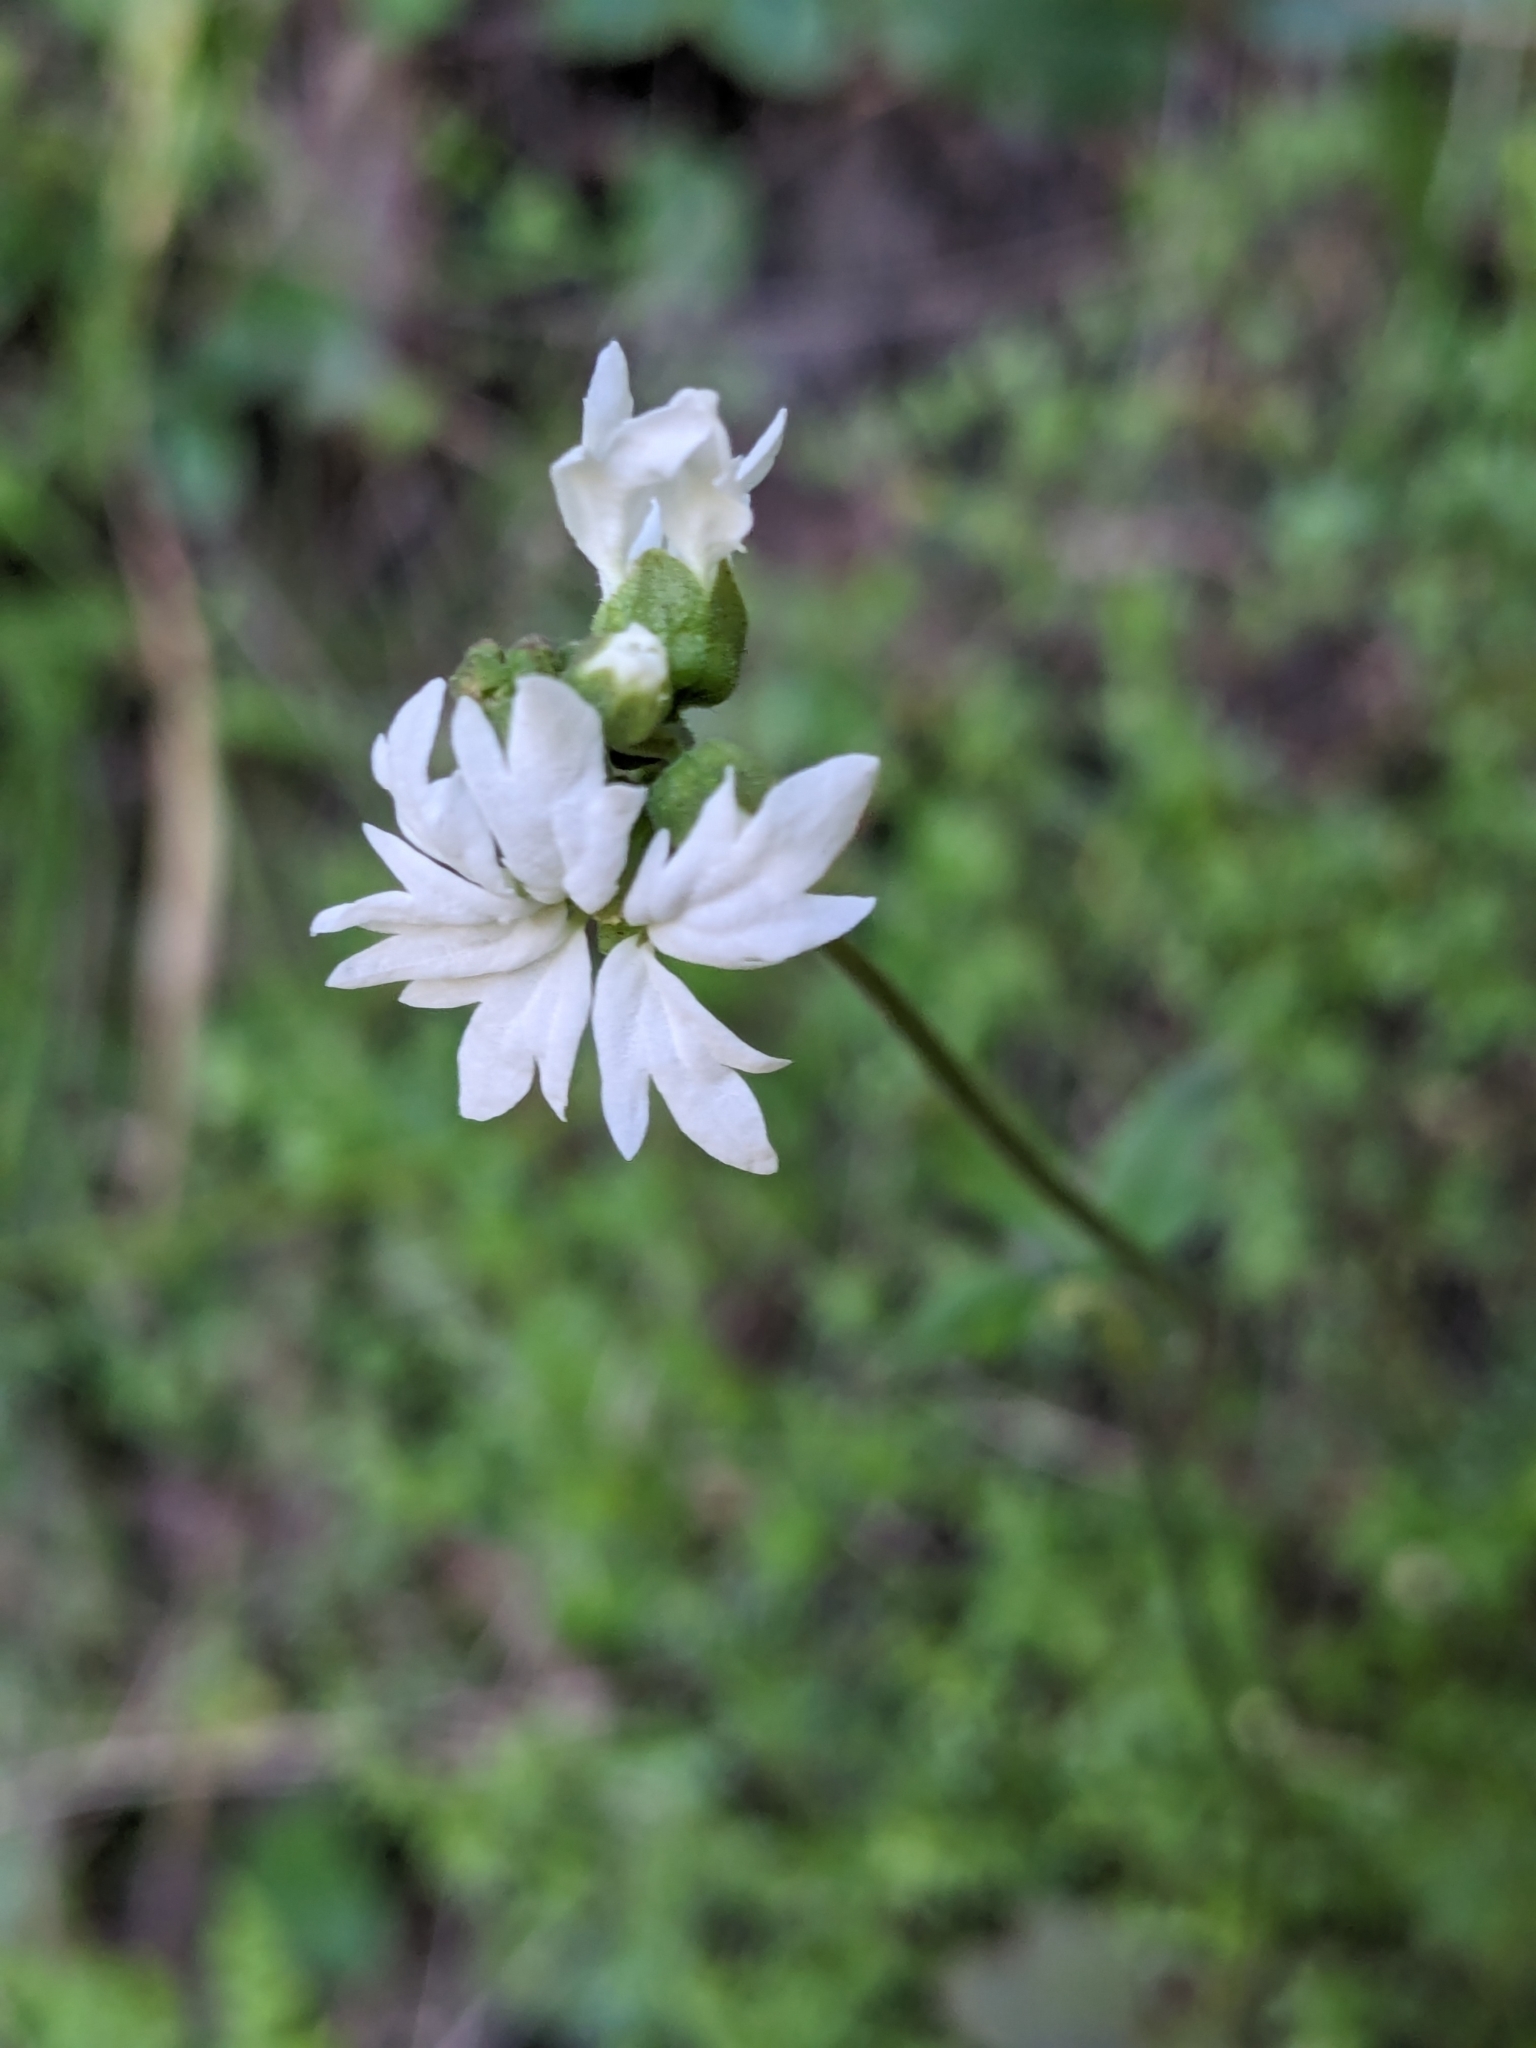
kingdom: Plantae
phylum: Tracheophyta
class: Magnoliopsida
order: Saxifragales
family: Saxifragaceae
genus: Lithophragma
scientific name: Lithophragma heterophyllum
